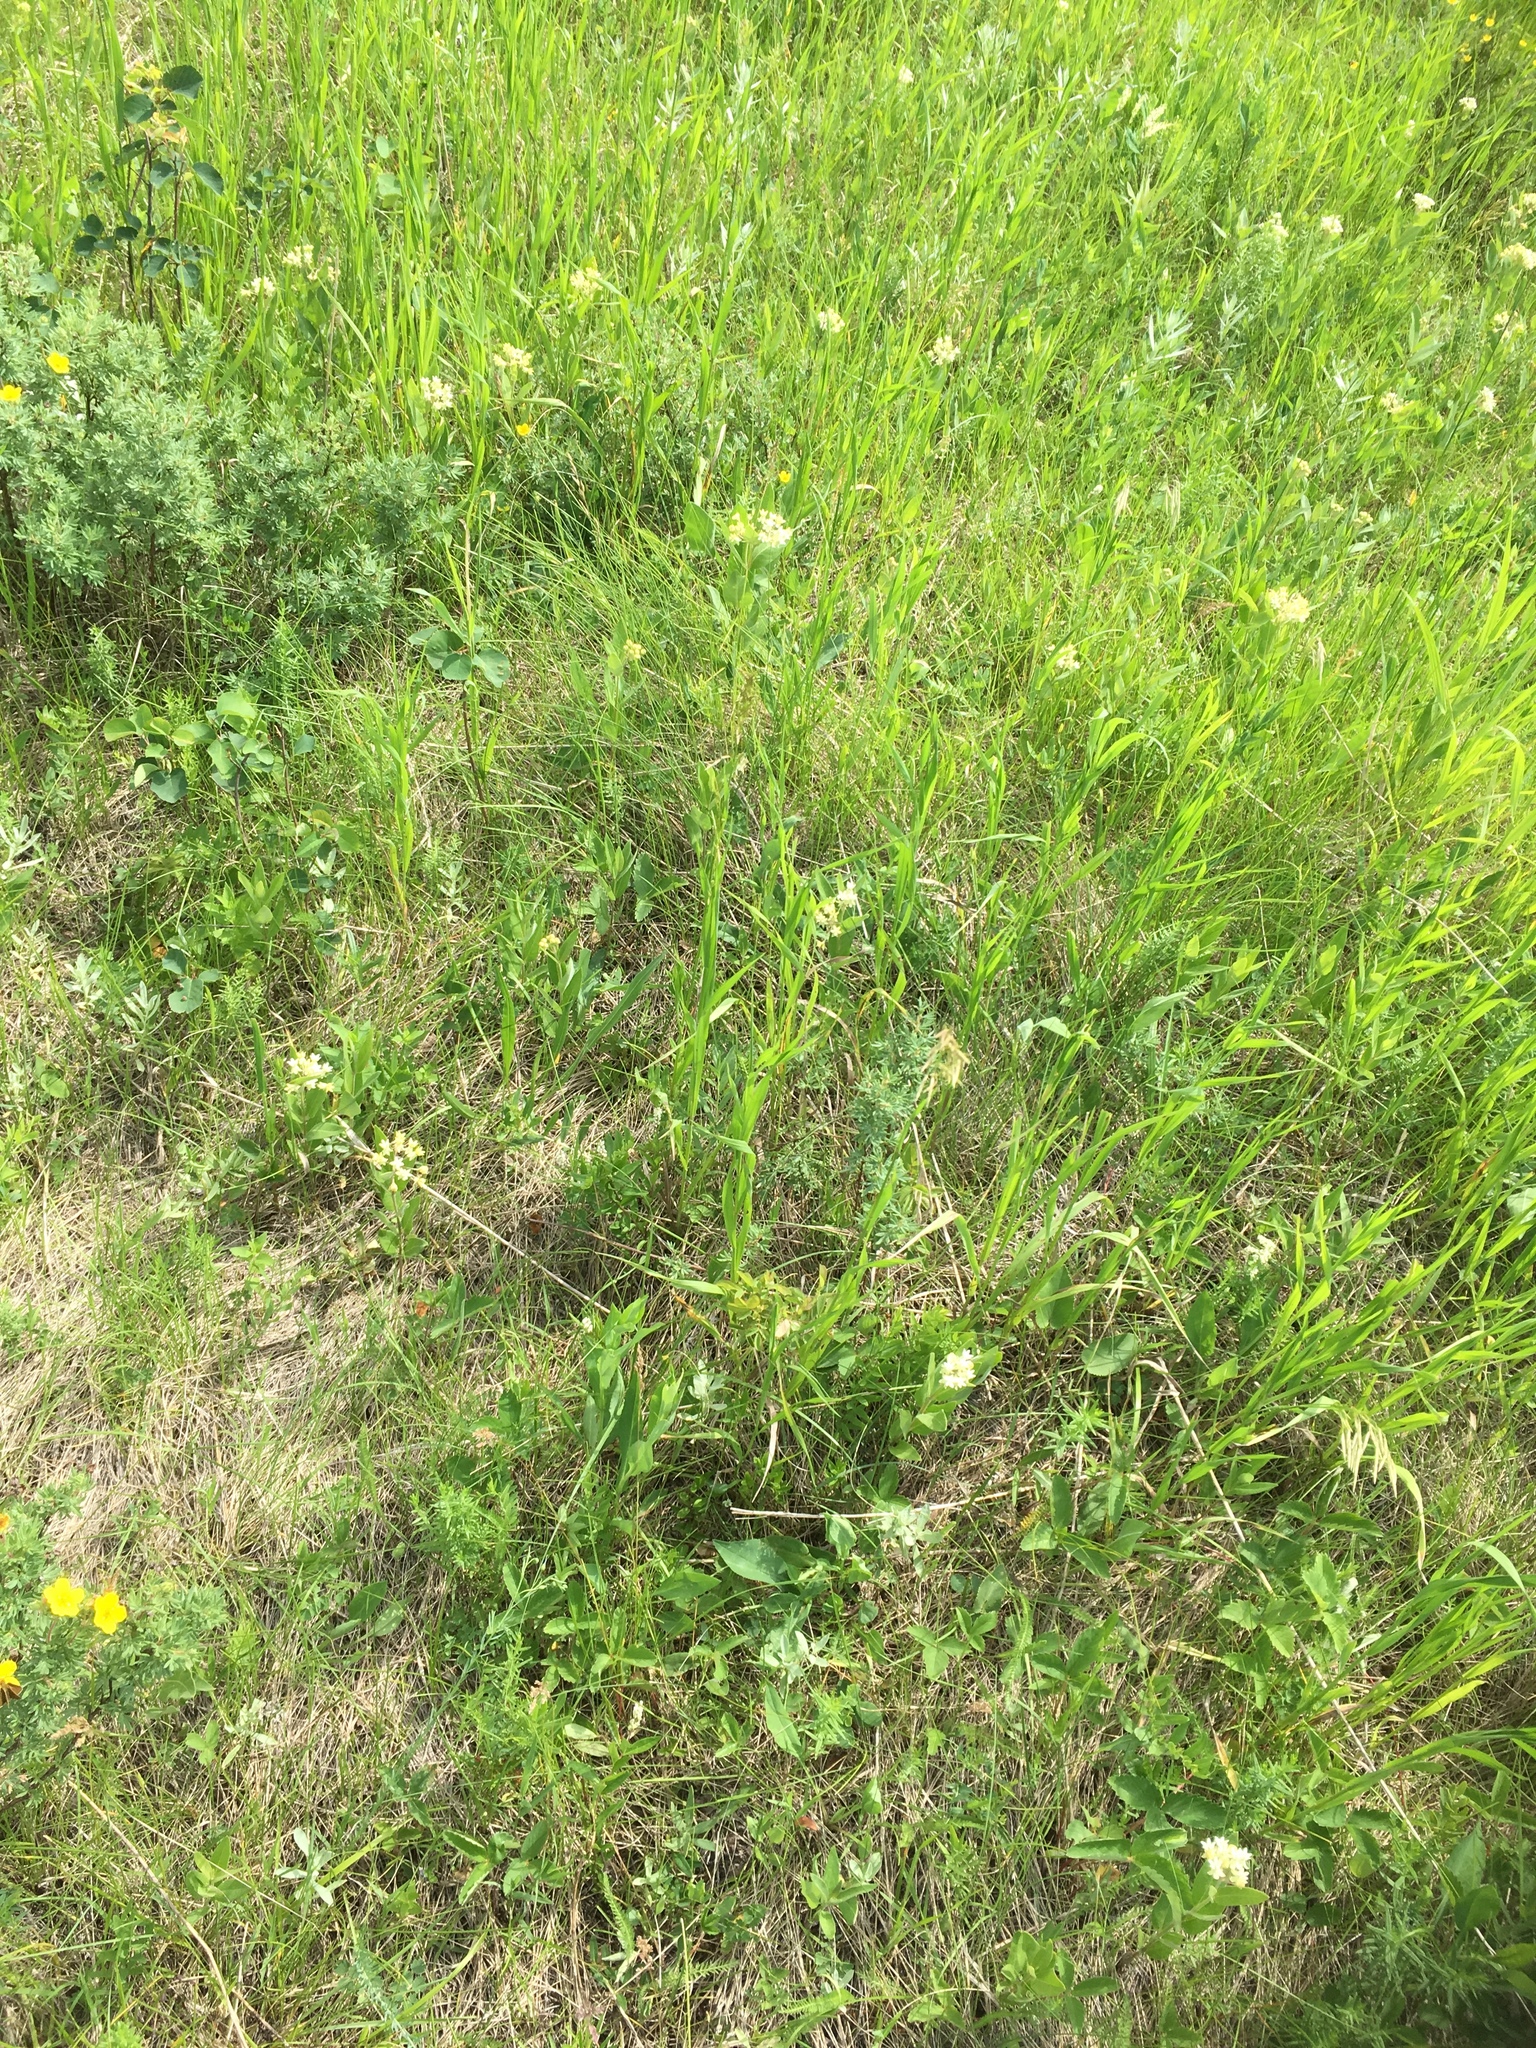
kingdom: Plantae
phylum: Tracheophyta
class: Magnoliopsida
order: Gentianales
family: Apocynaceae
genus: Asclepias
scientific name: Asclepias ovalifolia
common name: Dwarf milkweed
